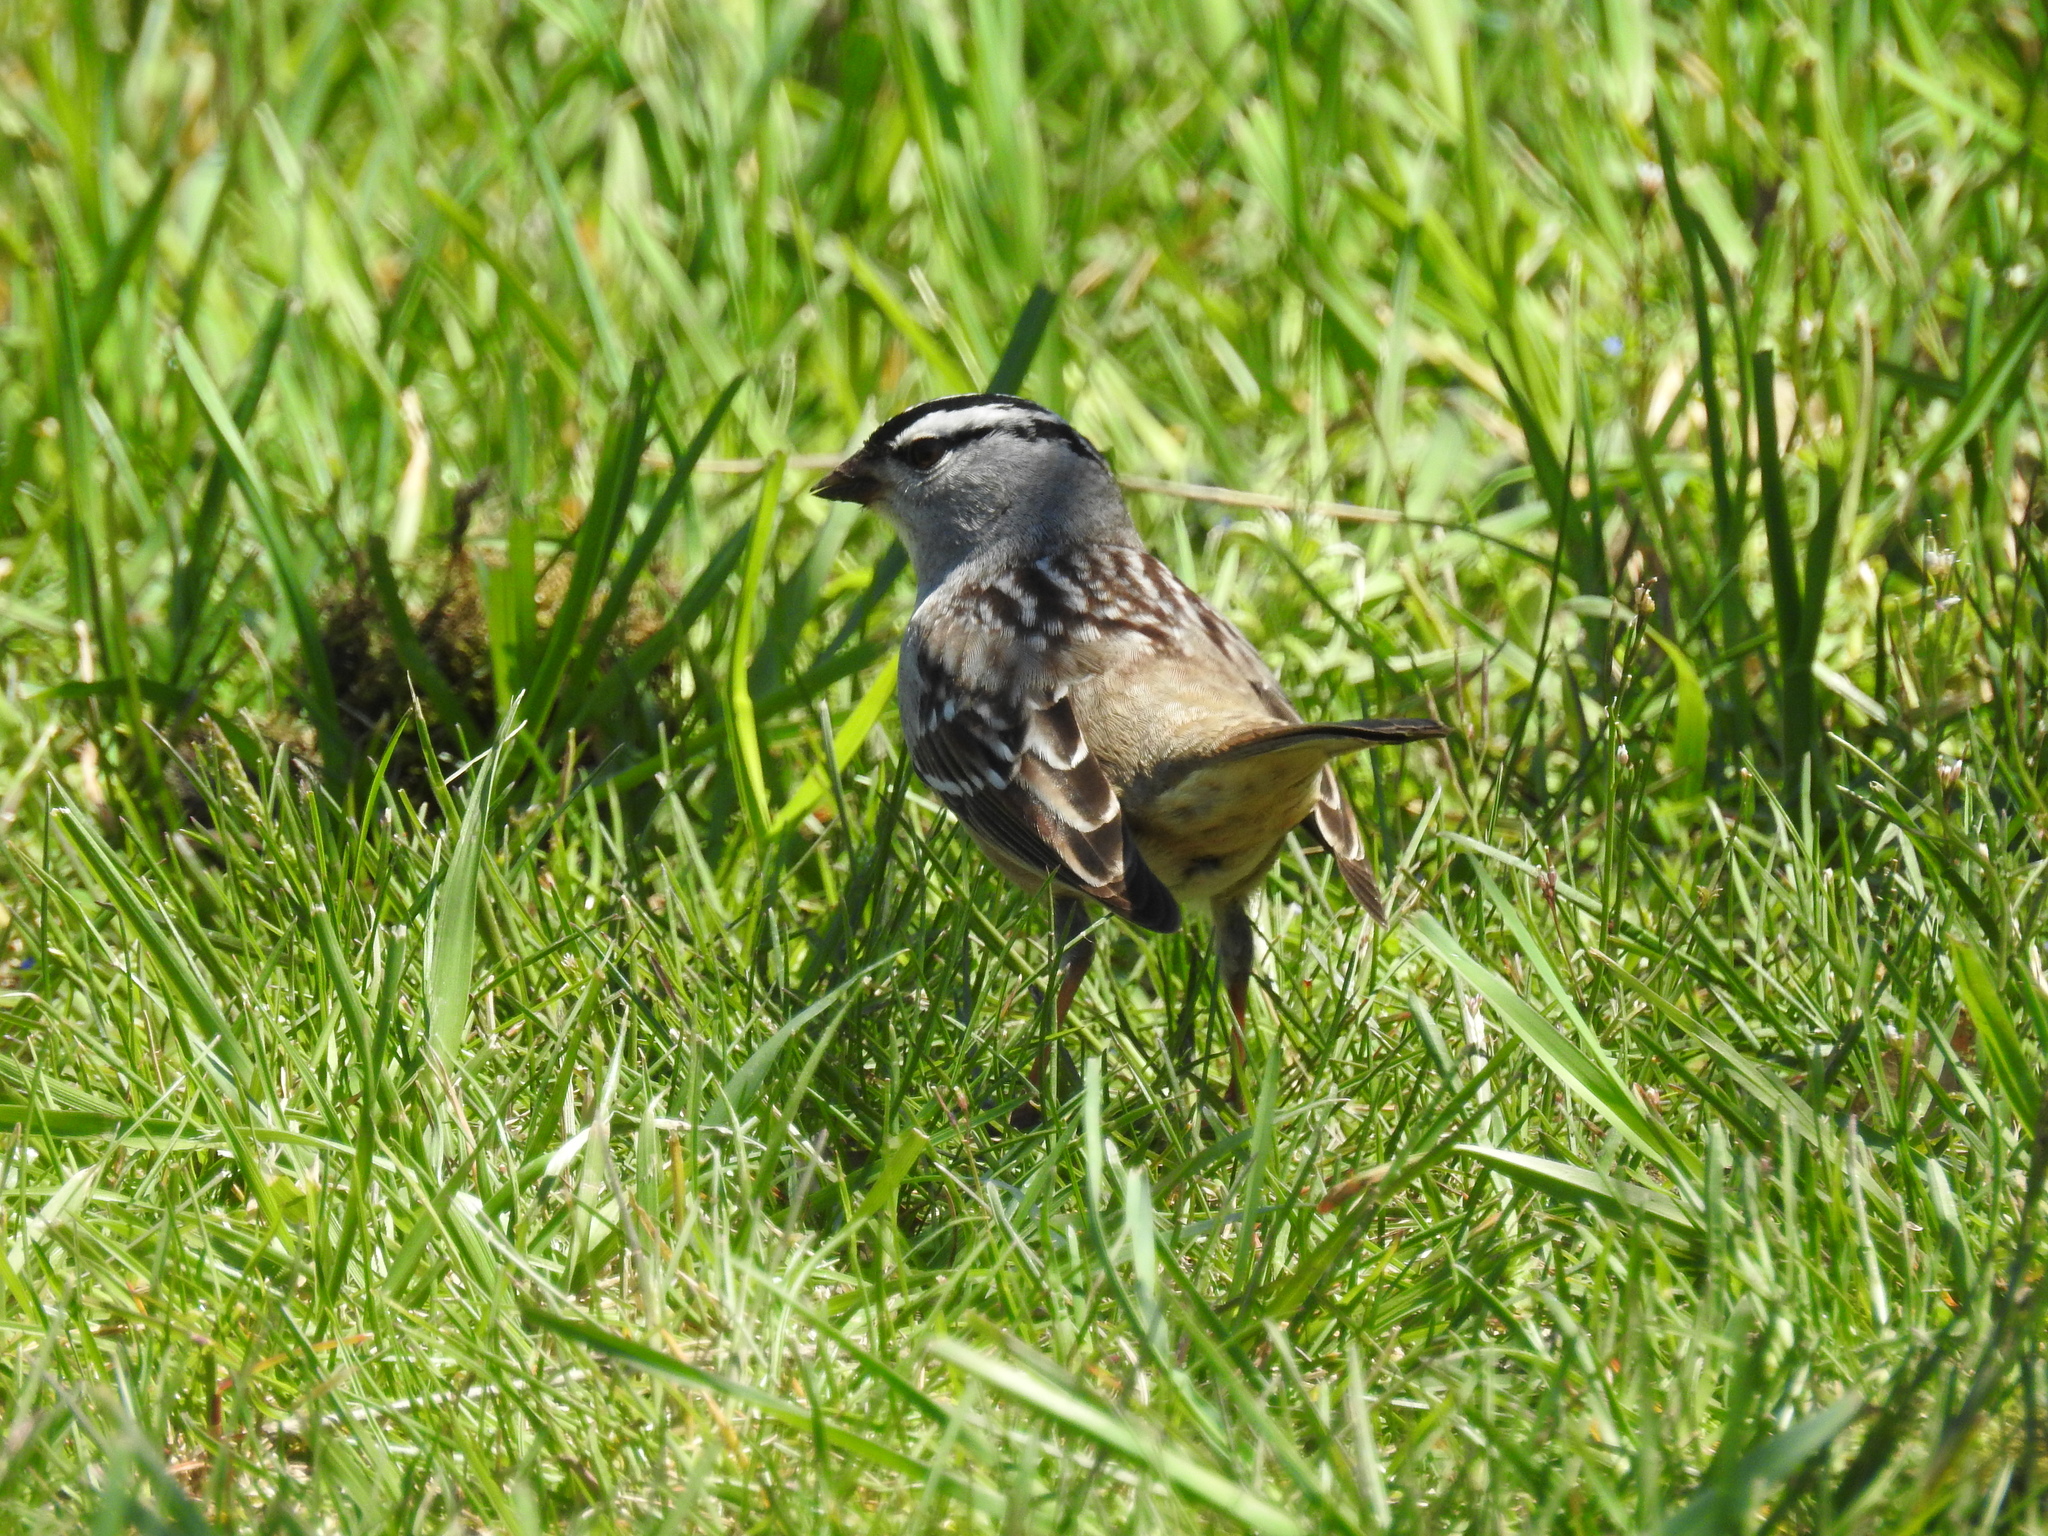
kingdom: Animalia
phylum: Chordata
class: Aves
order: Passeriformes
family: Passerellidae
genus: Zonotrichia
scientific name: Zonotrichia leucophrys
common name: White-crowned sparrow
